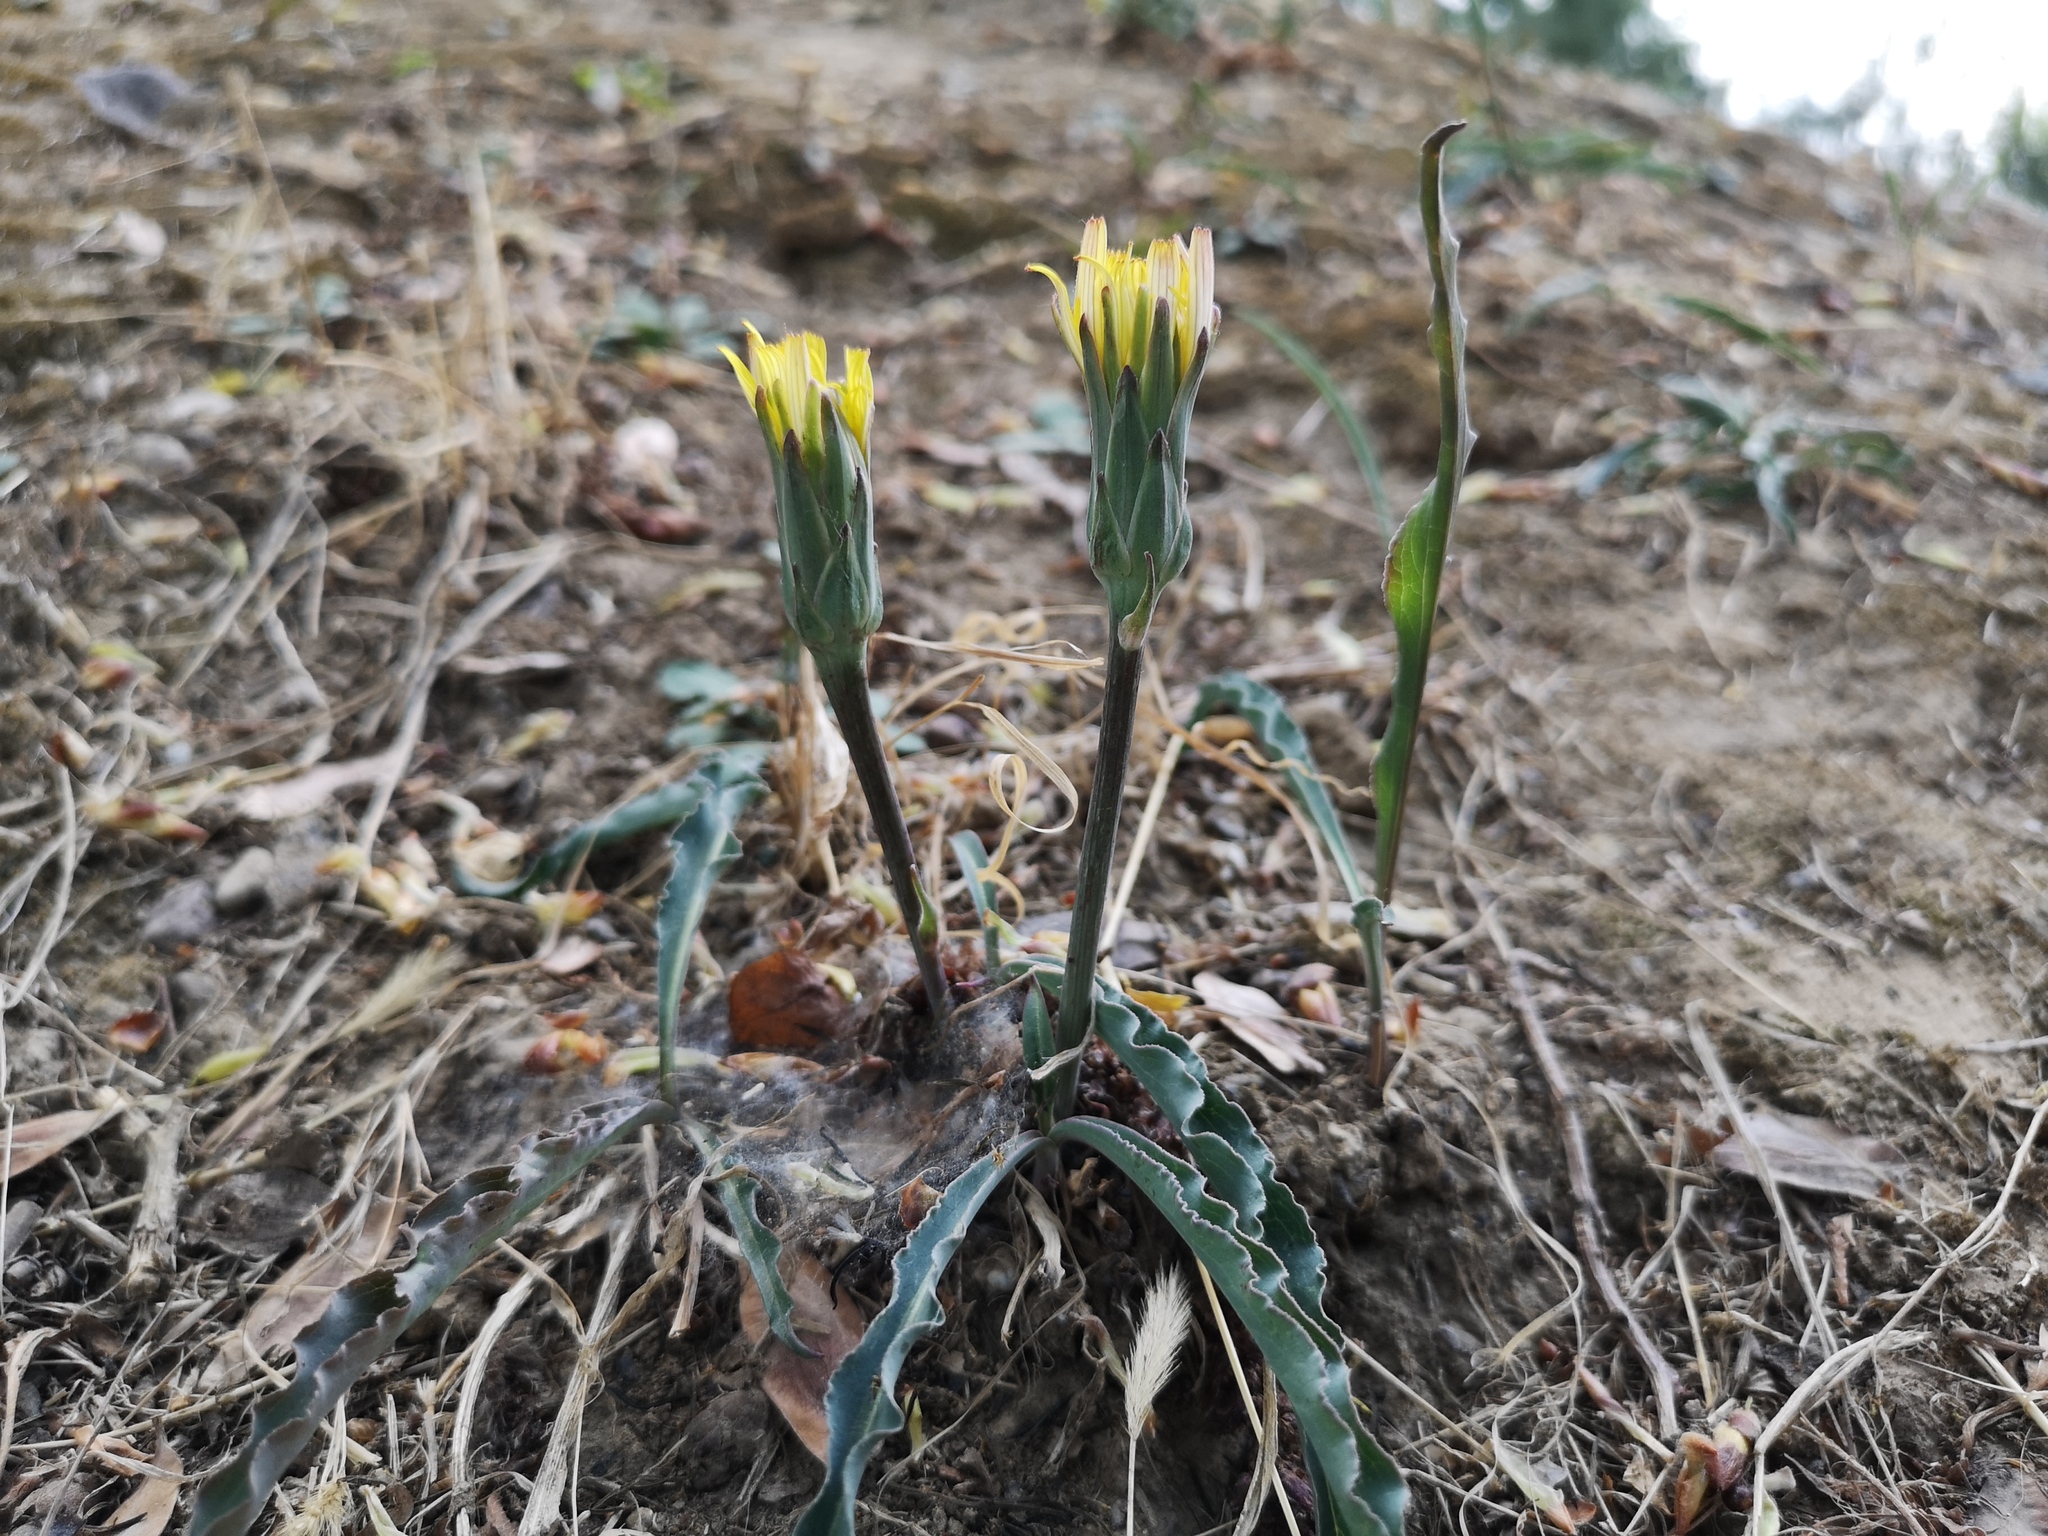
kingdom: Plantae
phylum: Tracheophyta
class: Magnoliopsida
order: Asterales
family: Asteraceae
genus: Scorzonera
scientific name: Scorzonera sinensis
